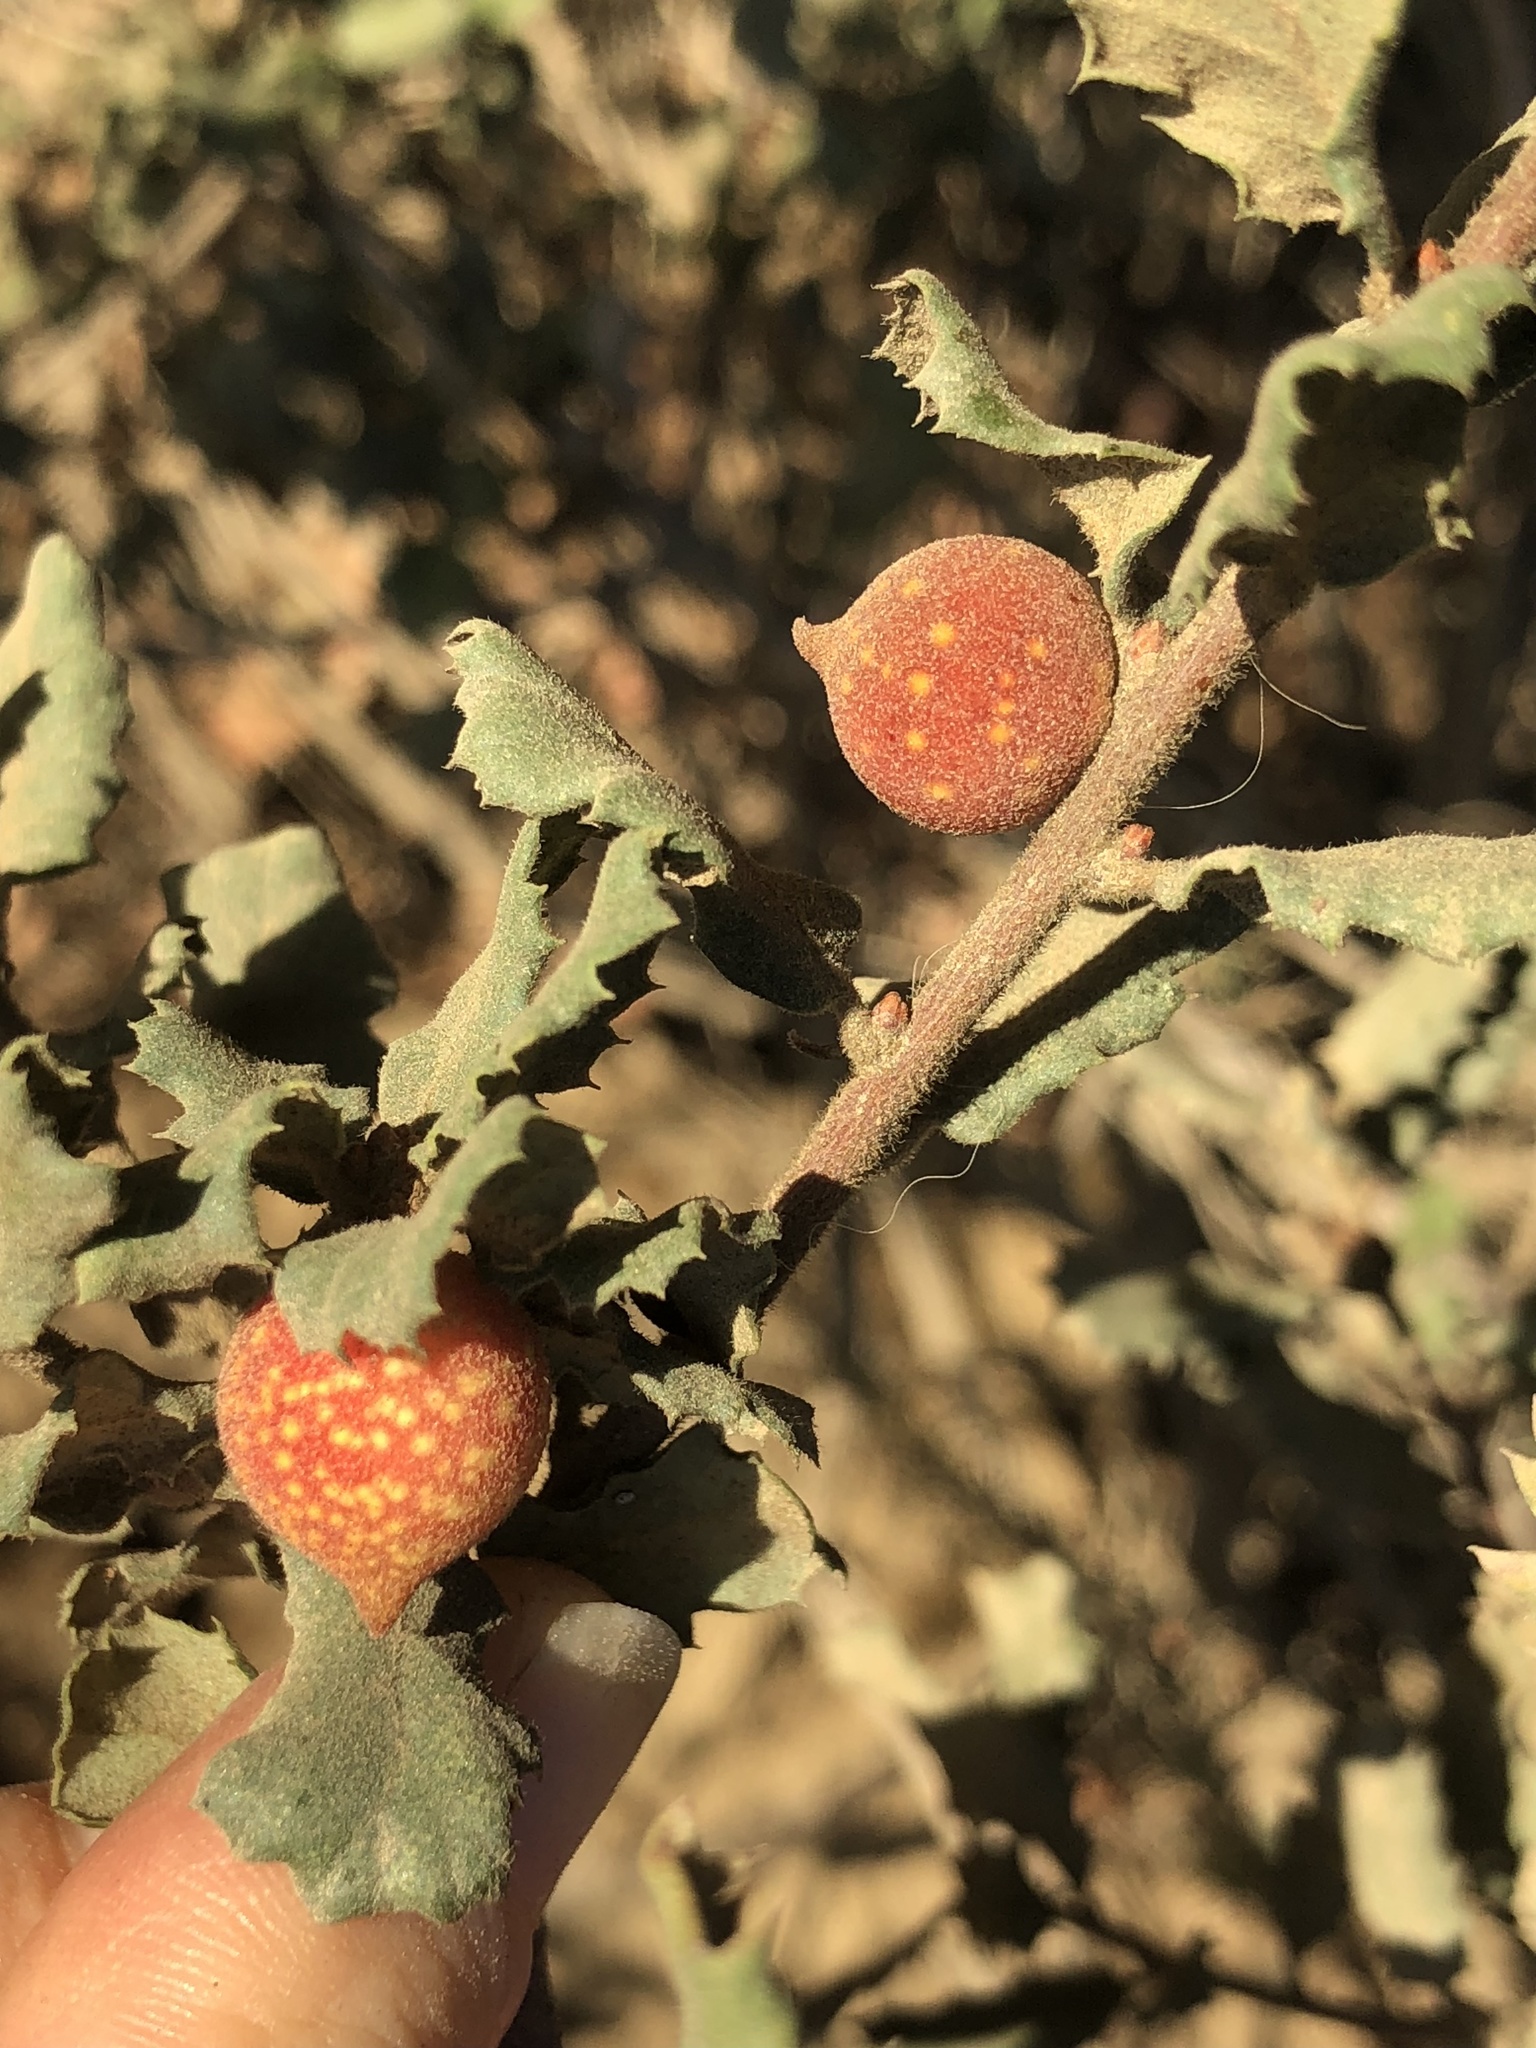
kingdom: Animalia
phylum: Arthropoda
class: Insecta
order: Hymenoptera
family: Cynipidae
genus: Burnettweldia
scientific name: Burnettweldia
